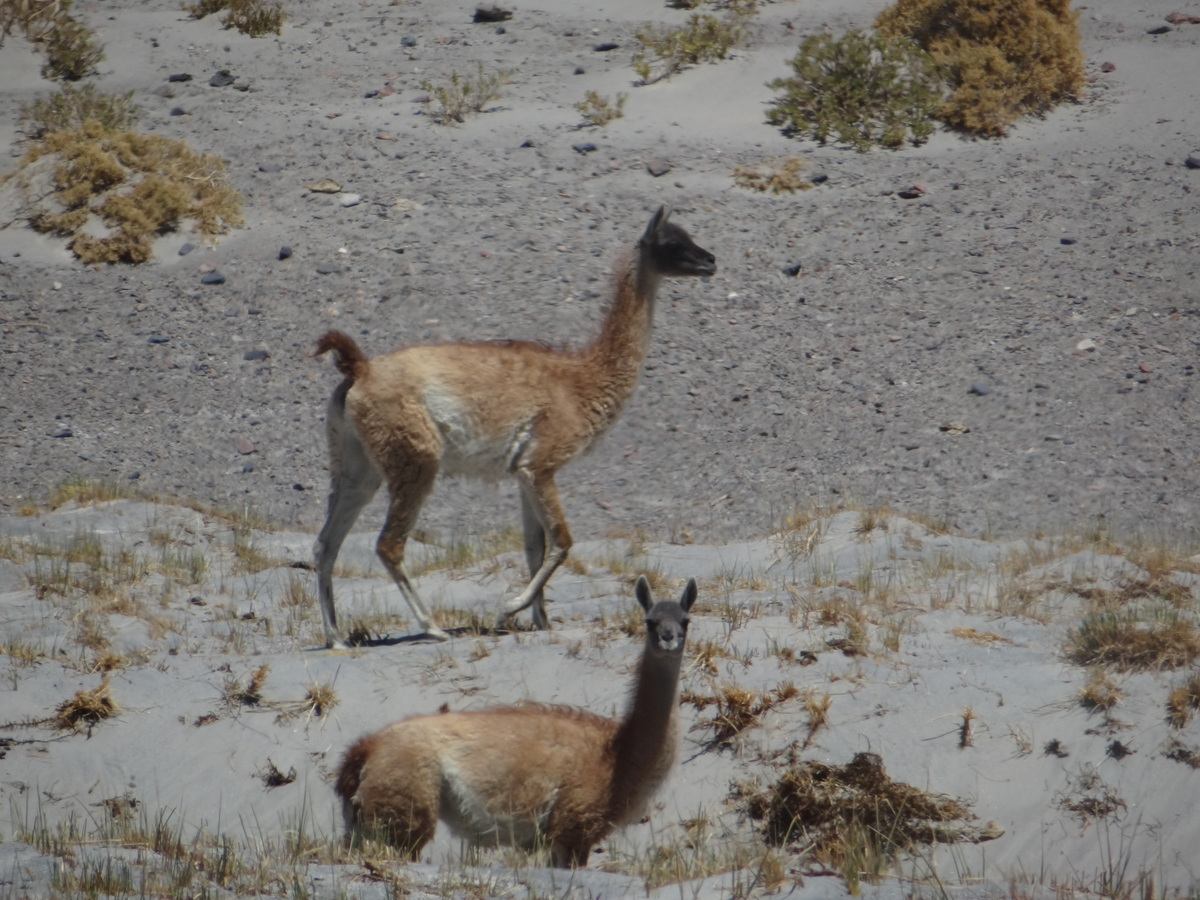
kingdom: Animalia
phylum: Chordata
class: Mammalia
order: Artiodactyla
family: Camelidae
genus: Lama
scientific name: Lama glama
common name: Llama
